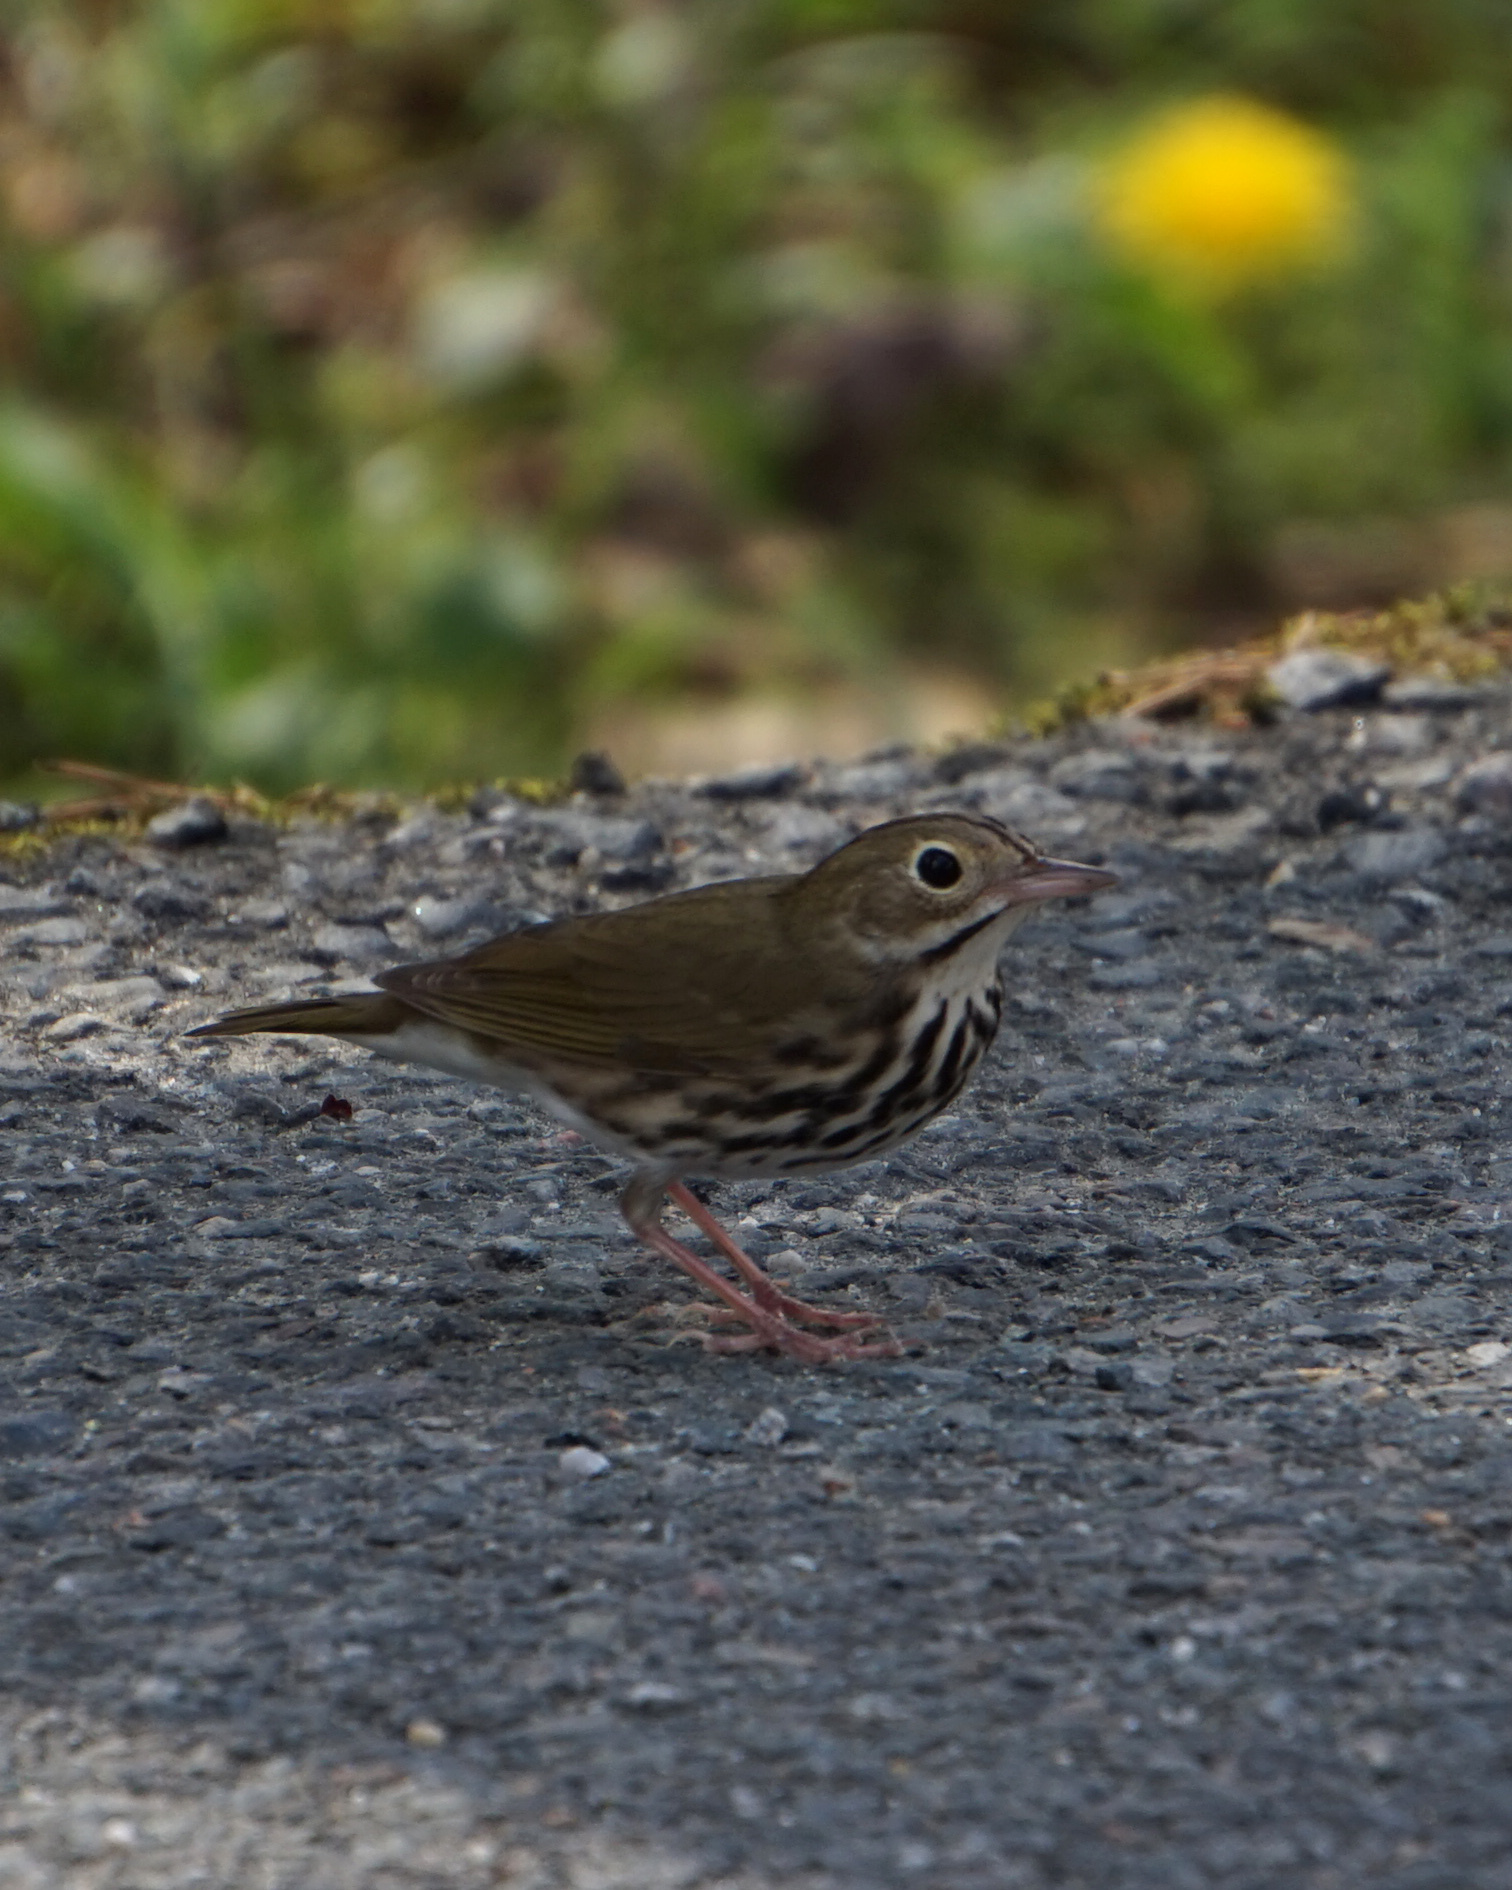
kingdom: Animalia
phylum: Chordata
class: Aves
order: Passeriformes
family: Parulidae
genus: Seiurus
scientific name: Seiurus aurocapilla
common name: Ovenbird
